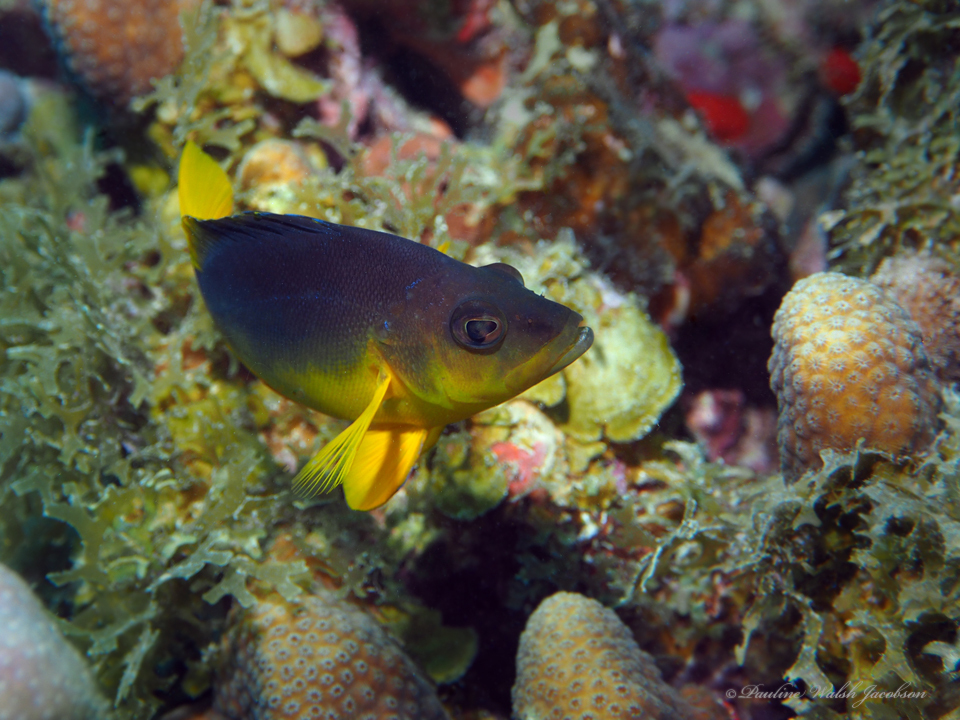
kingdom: Animalia
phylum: Chordata
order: Perciformes
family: Serranidae
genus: Hypoplectrus
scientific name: Hypoplectrus aberrans
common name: Yellowbelly hamlet
